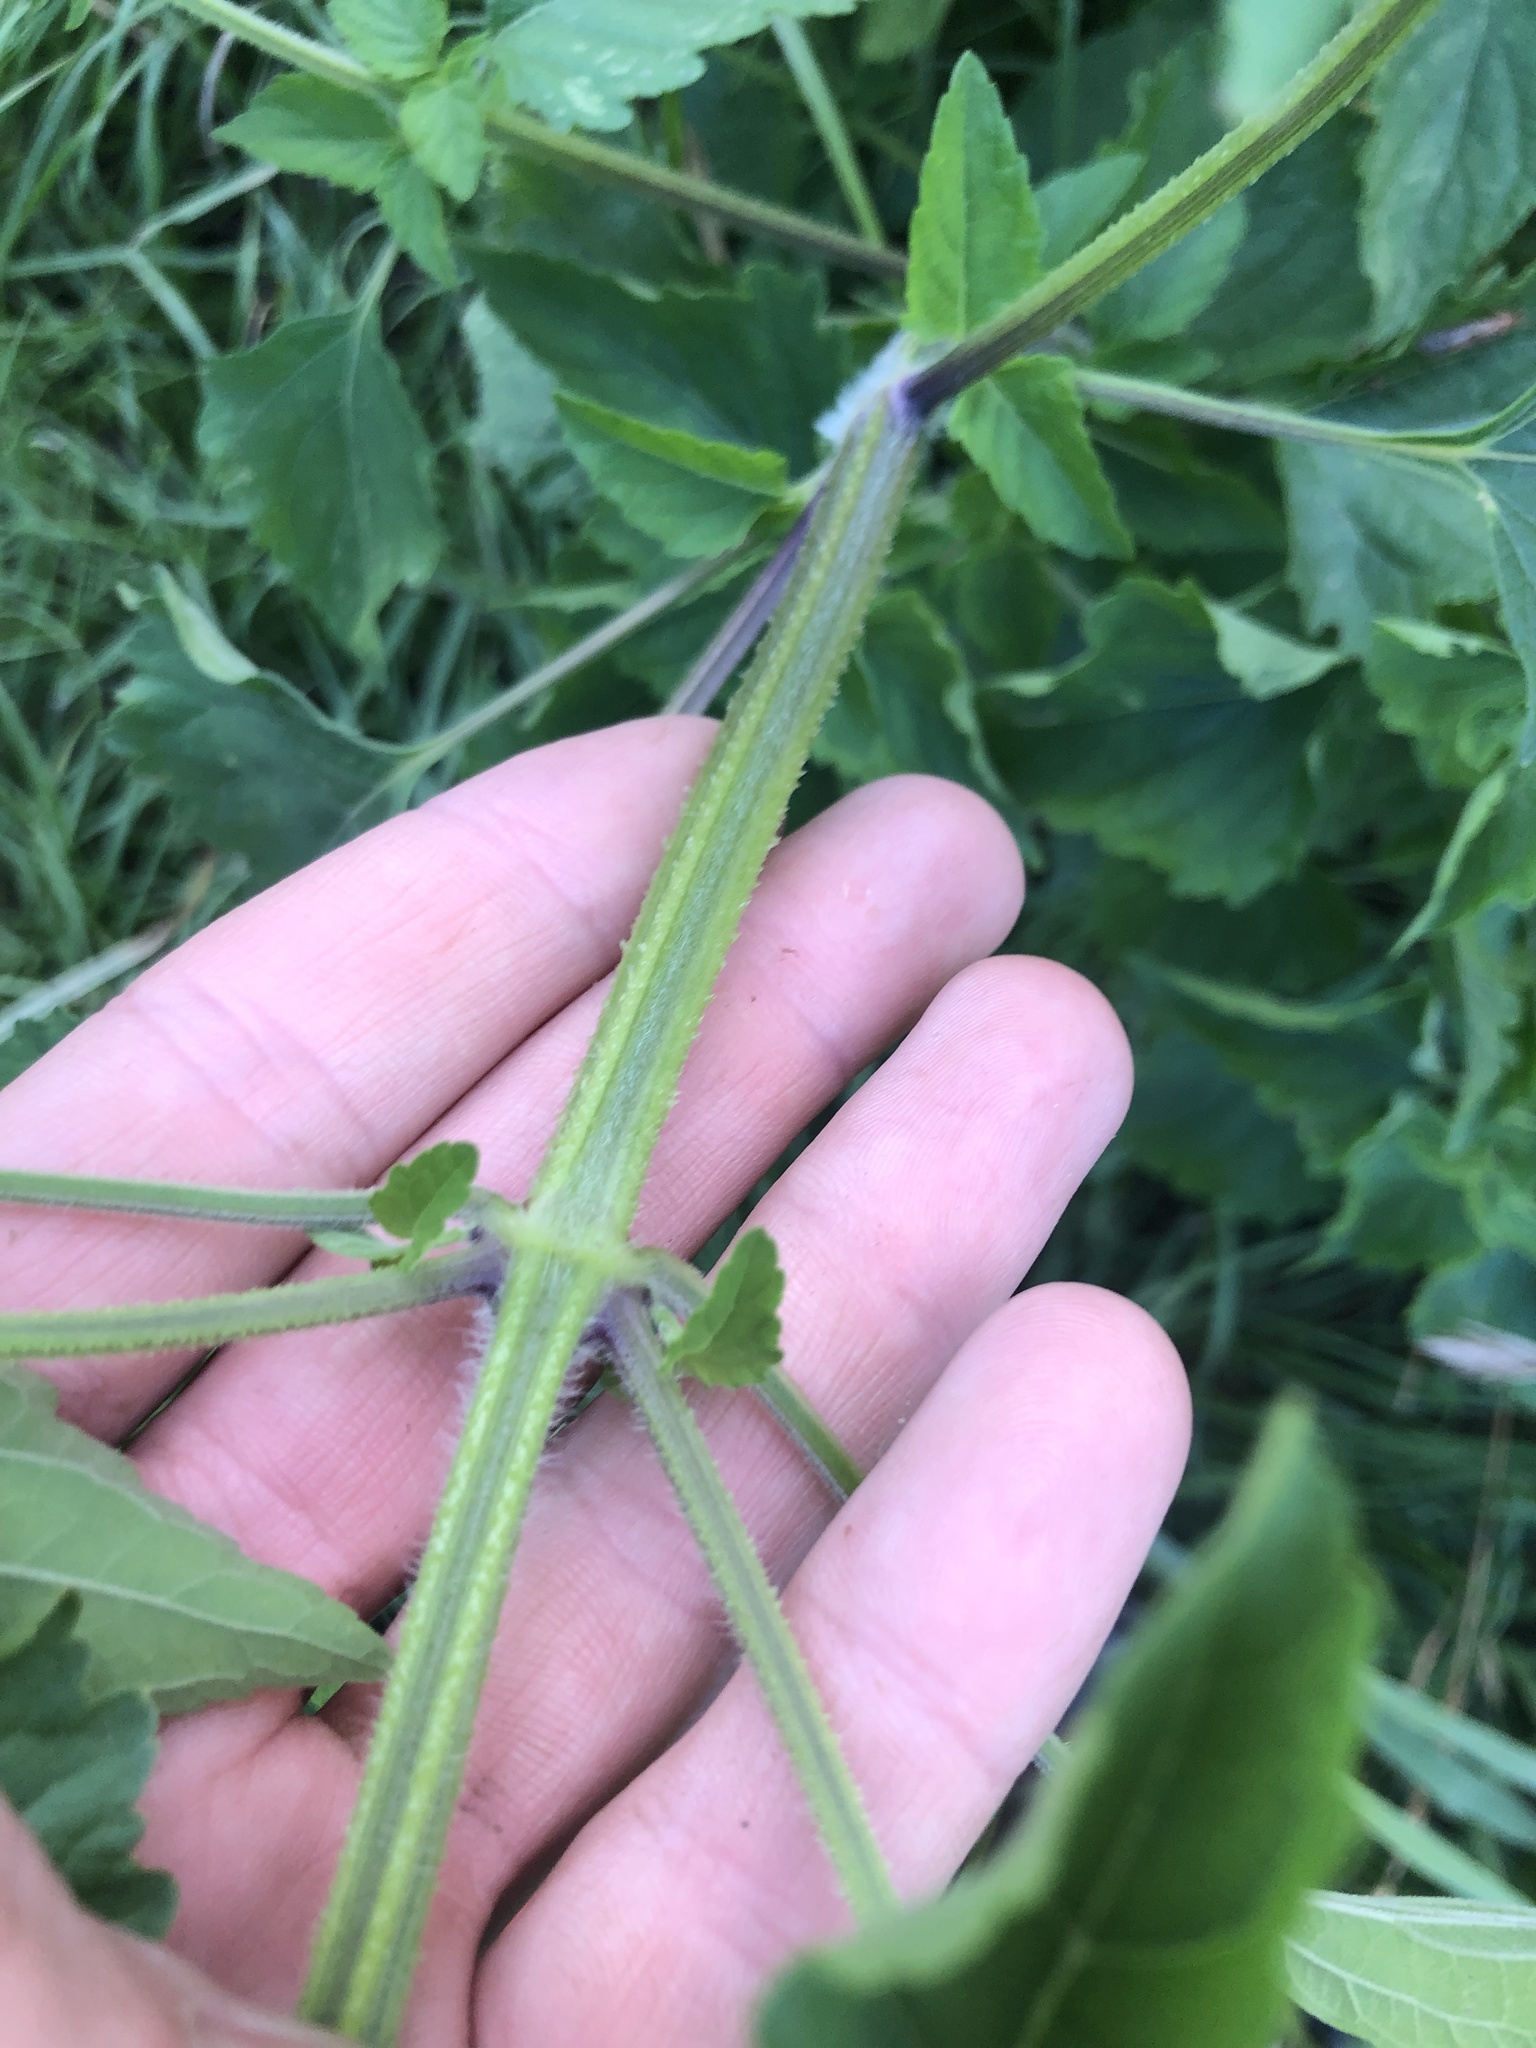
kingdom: Plantae
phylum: Tracheophyta
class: Magnoliopsida
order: Lamiales
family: Lamiaceae
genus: Cantinoa
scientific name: Cantinoa mutabilis
